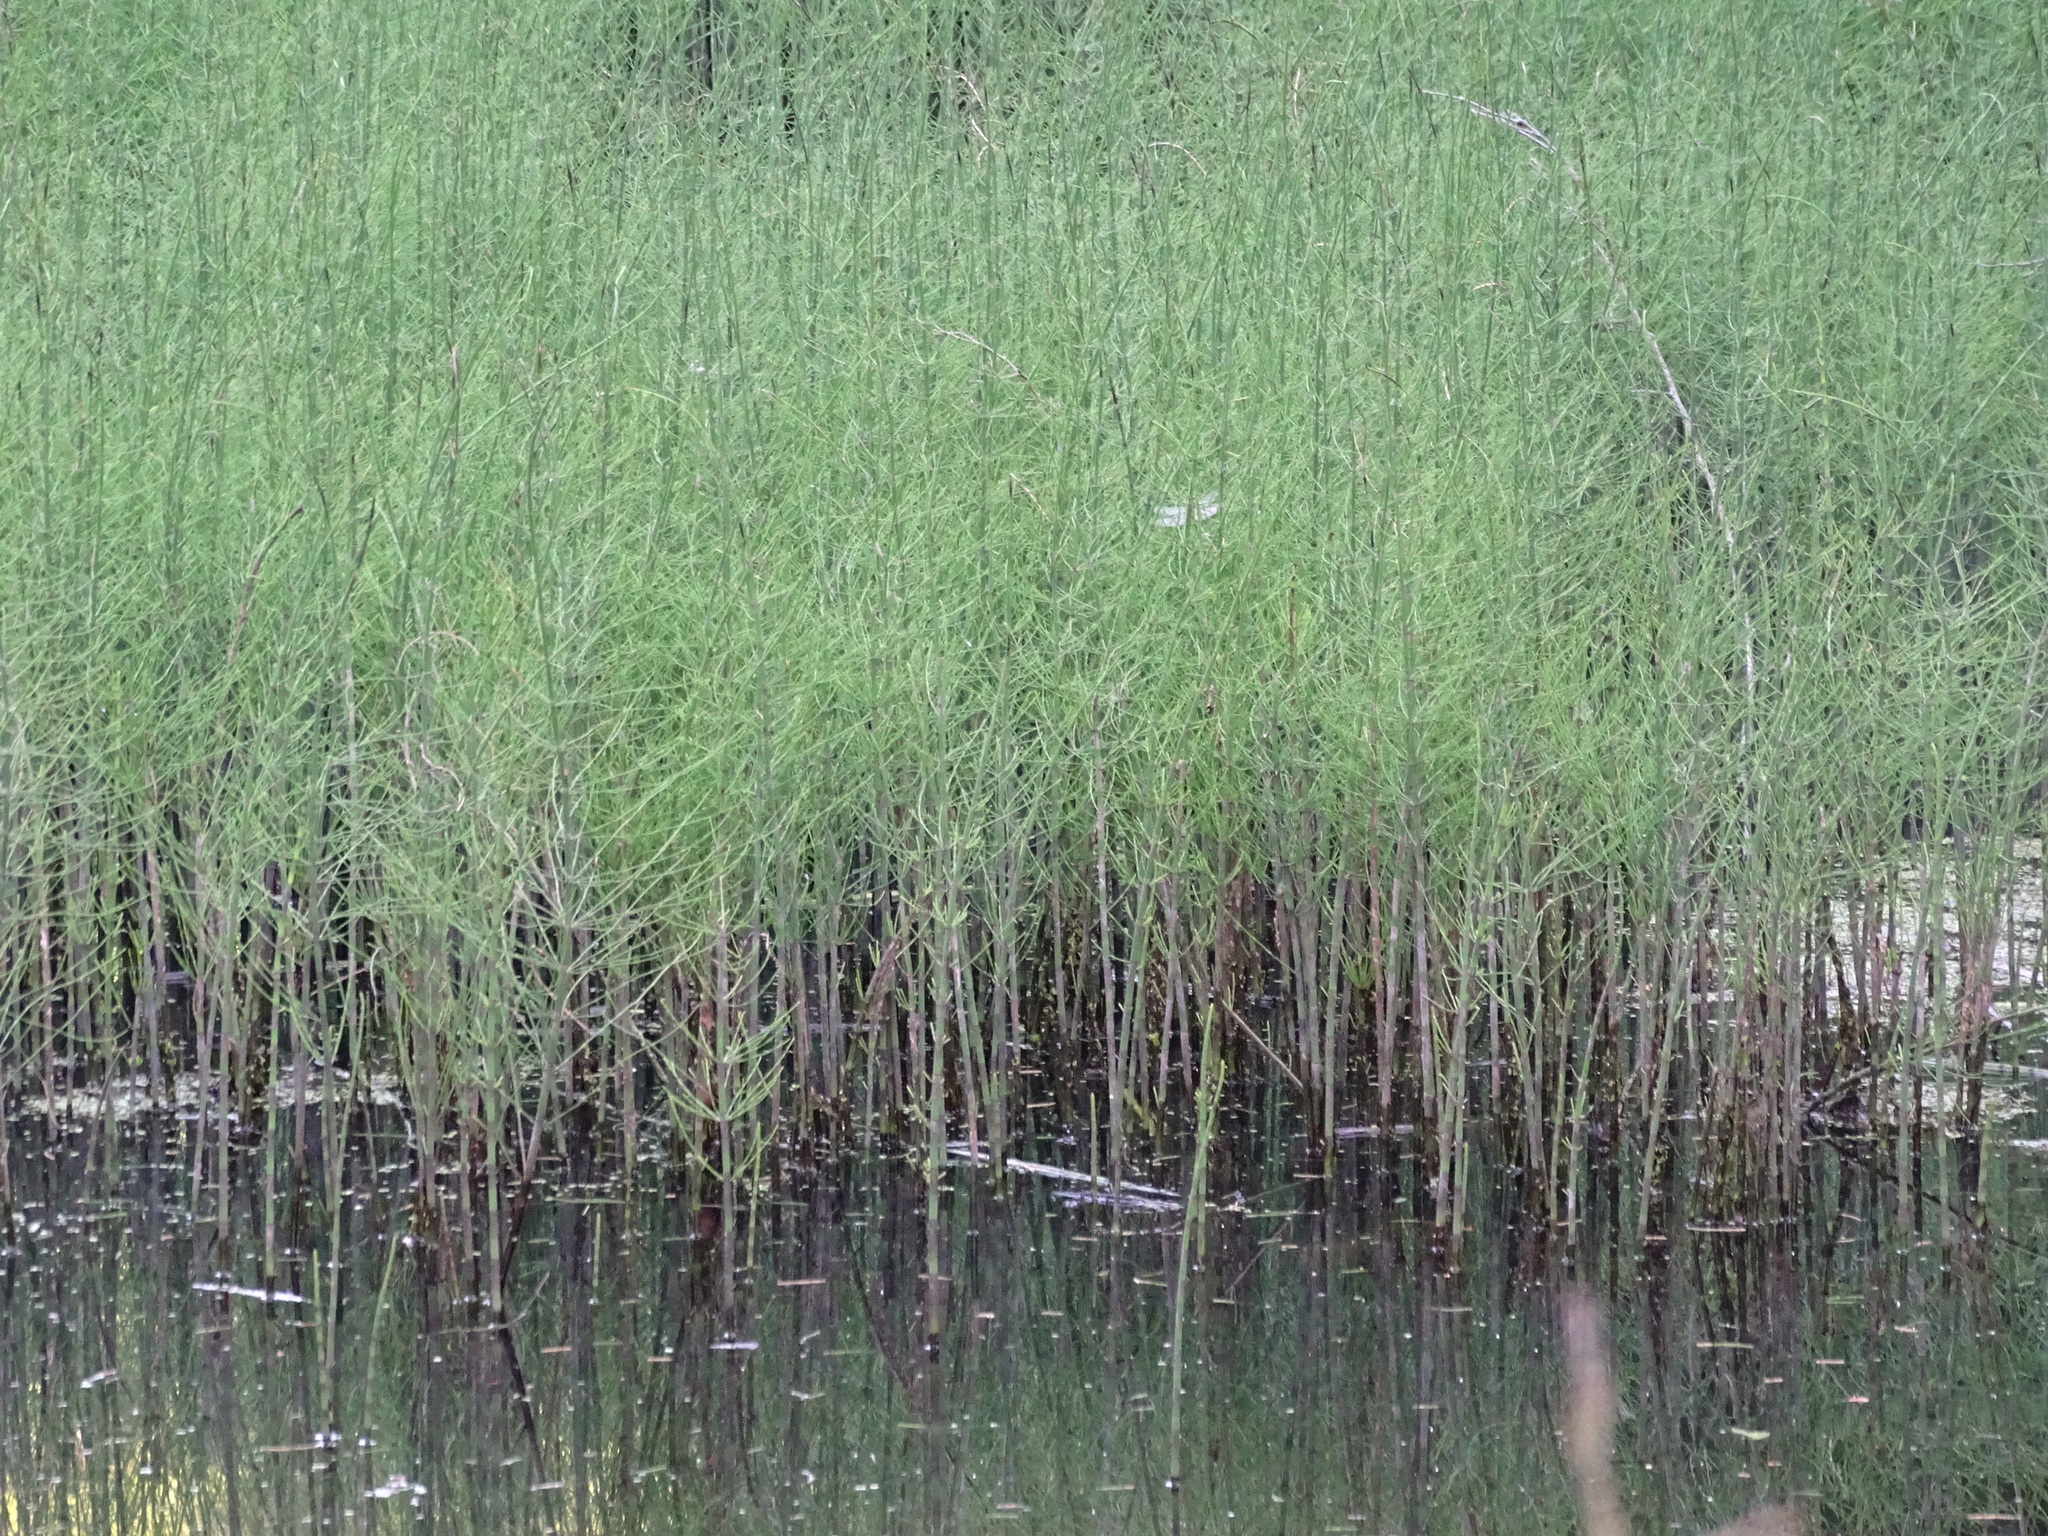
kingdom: Plantae
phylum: Tracheophyta
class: Polypodiopsida
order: Equisetales
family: Equisetaceae
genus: Equisetum
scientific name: Equisetum fluviatile
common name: Water horsetail
